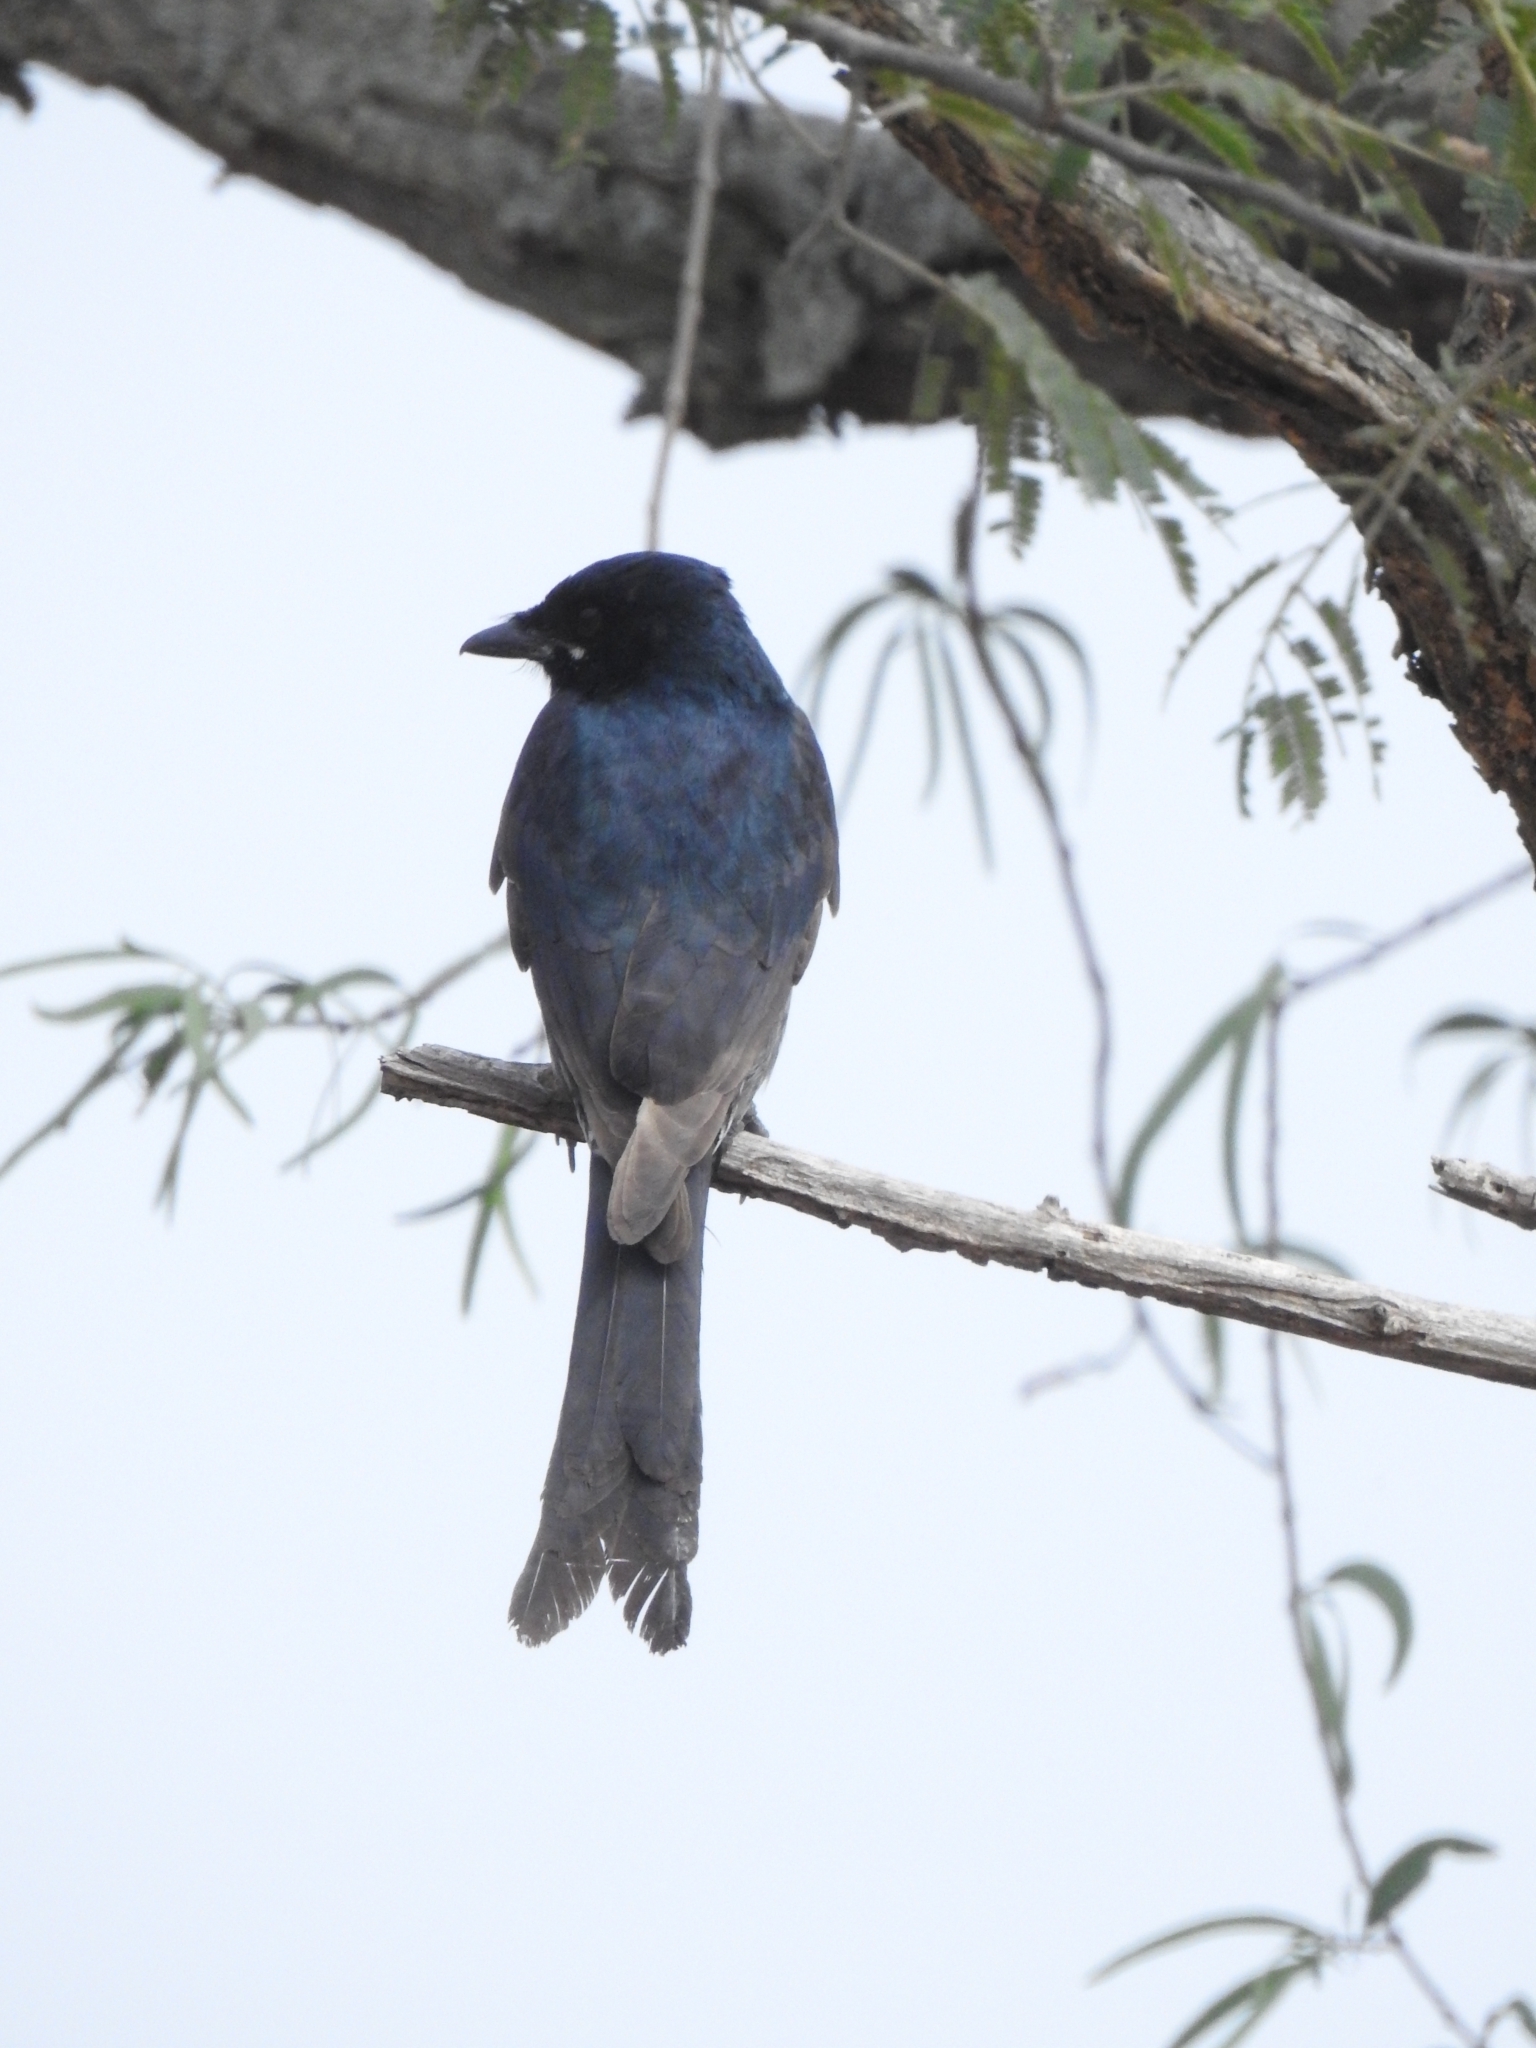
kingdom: Animalia
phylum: Chordata
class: Aves
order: Passeriformes
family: Dicruridae
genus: Dicrurus
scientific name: Dicrurus macrocercus
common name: Black drongo
